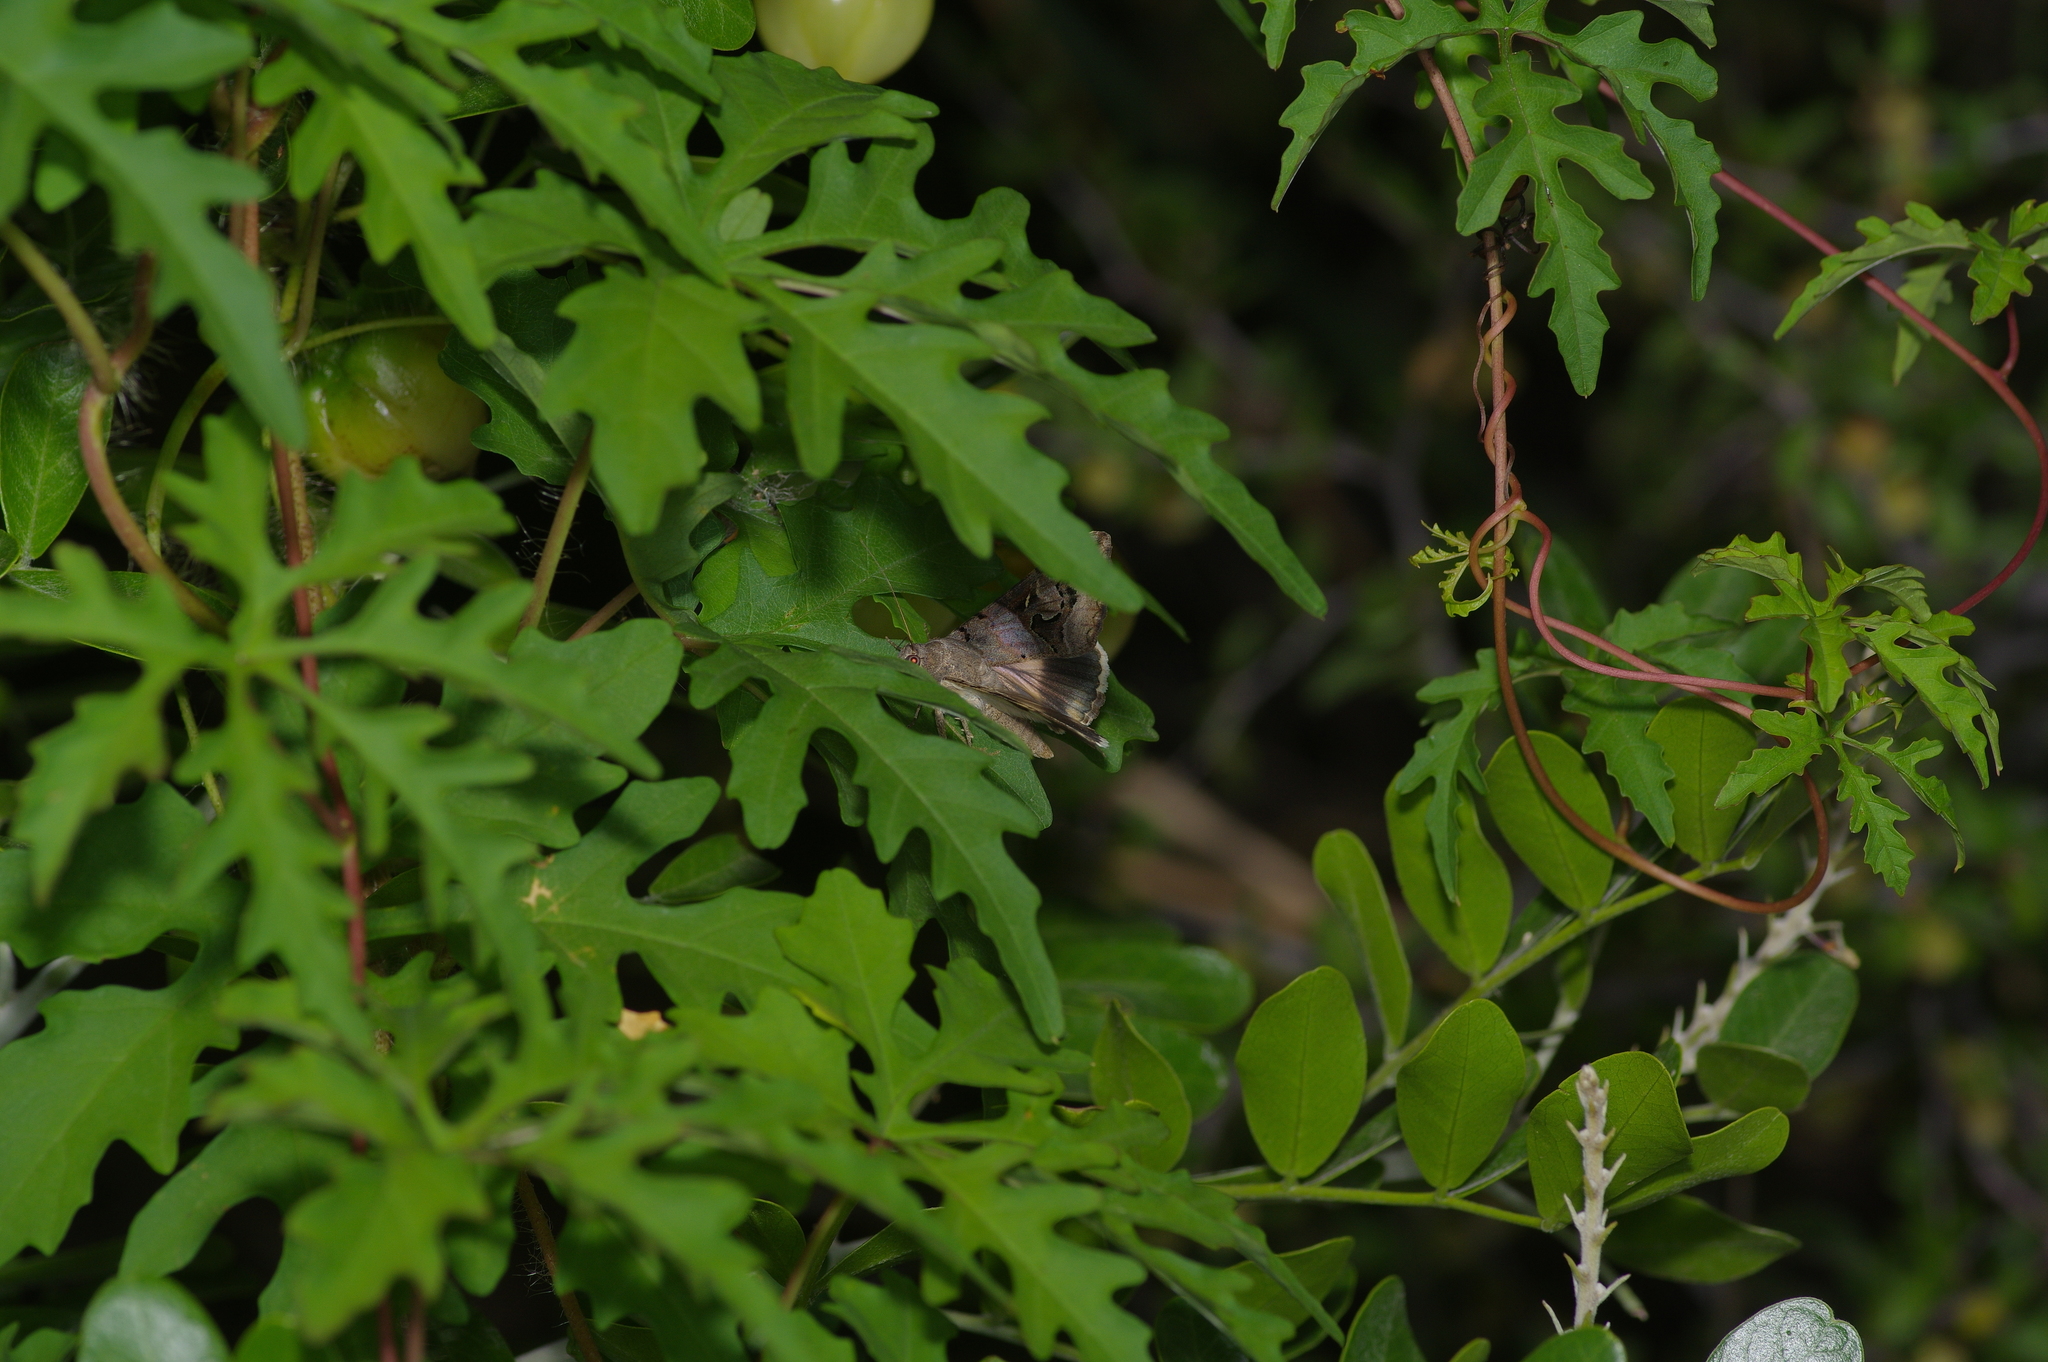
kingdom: Plantae
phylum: Tracheophyta
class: Magnoliopsida
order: Solanales
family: Convolvulaceae
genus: Distimake
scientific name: Distimake dissectus
